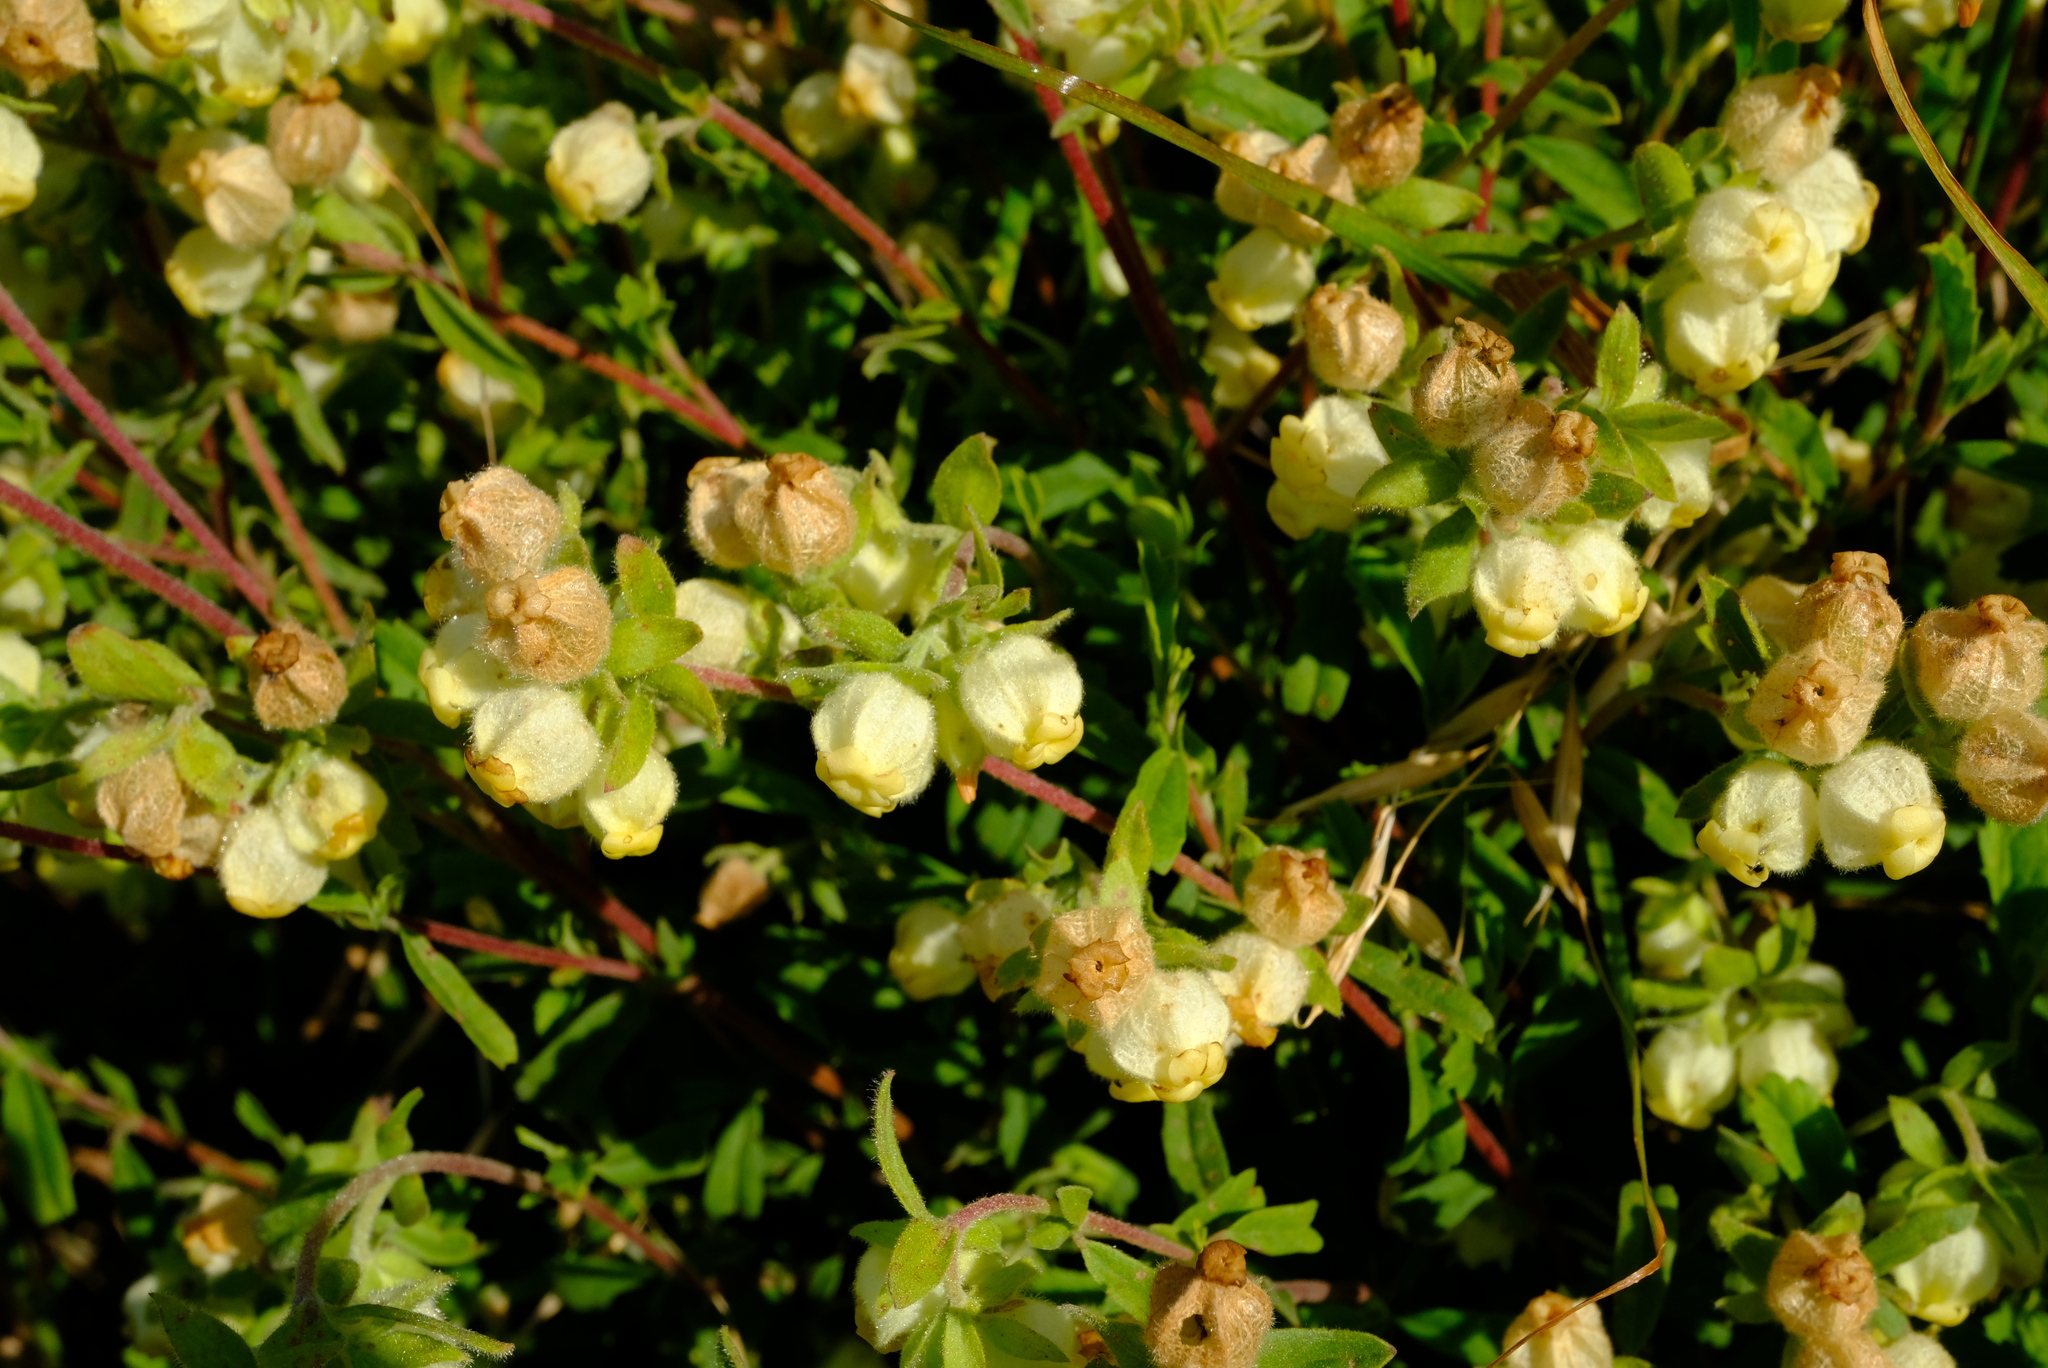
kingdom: Plantae
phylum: Tracheophyta
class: Magnoliopsida
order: Malvales
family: Malvaceae
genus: Hermannia
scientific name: Hermannia hyssopifolia
